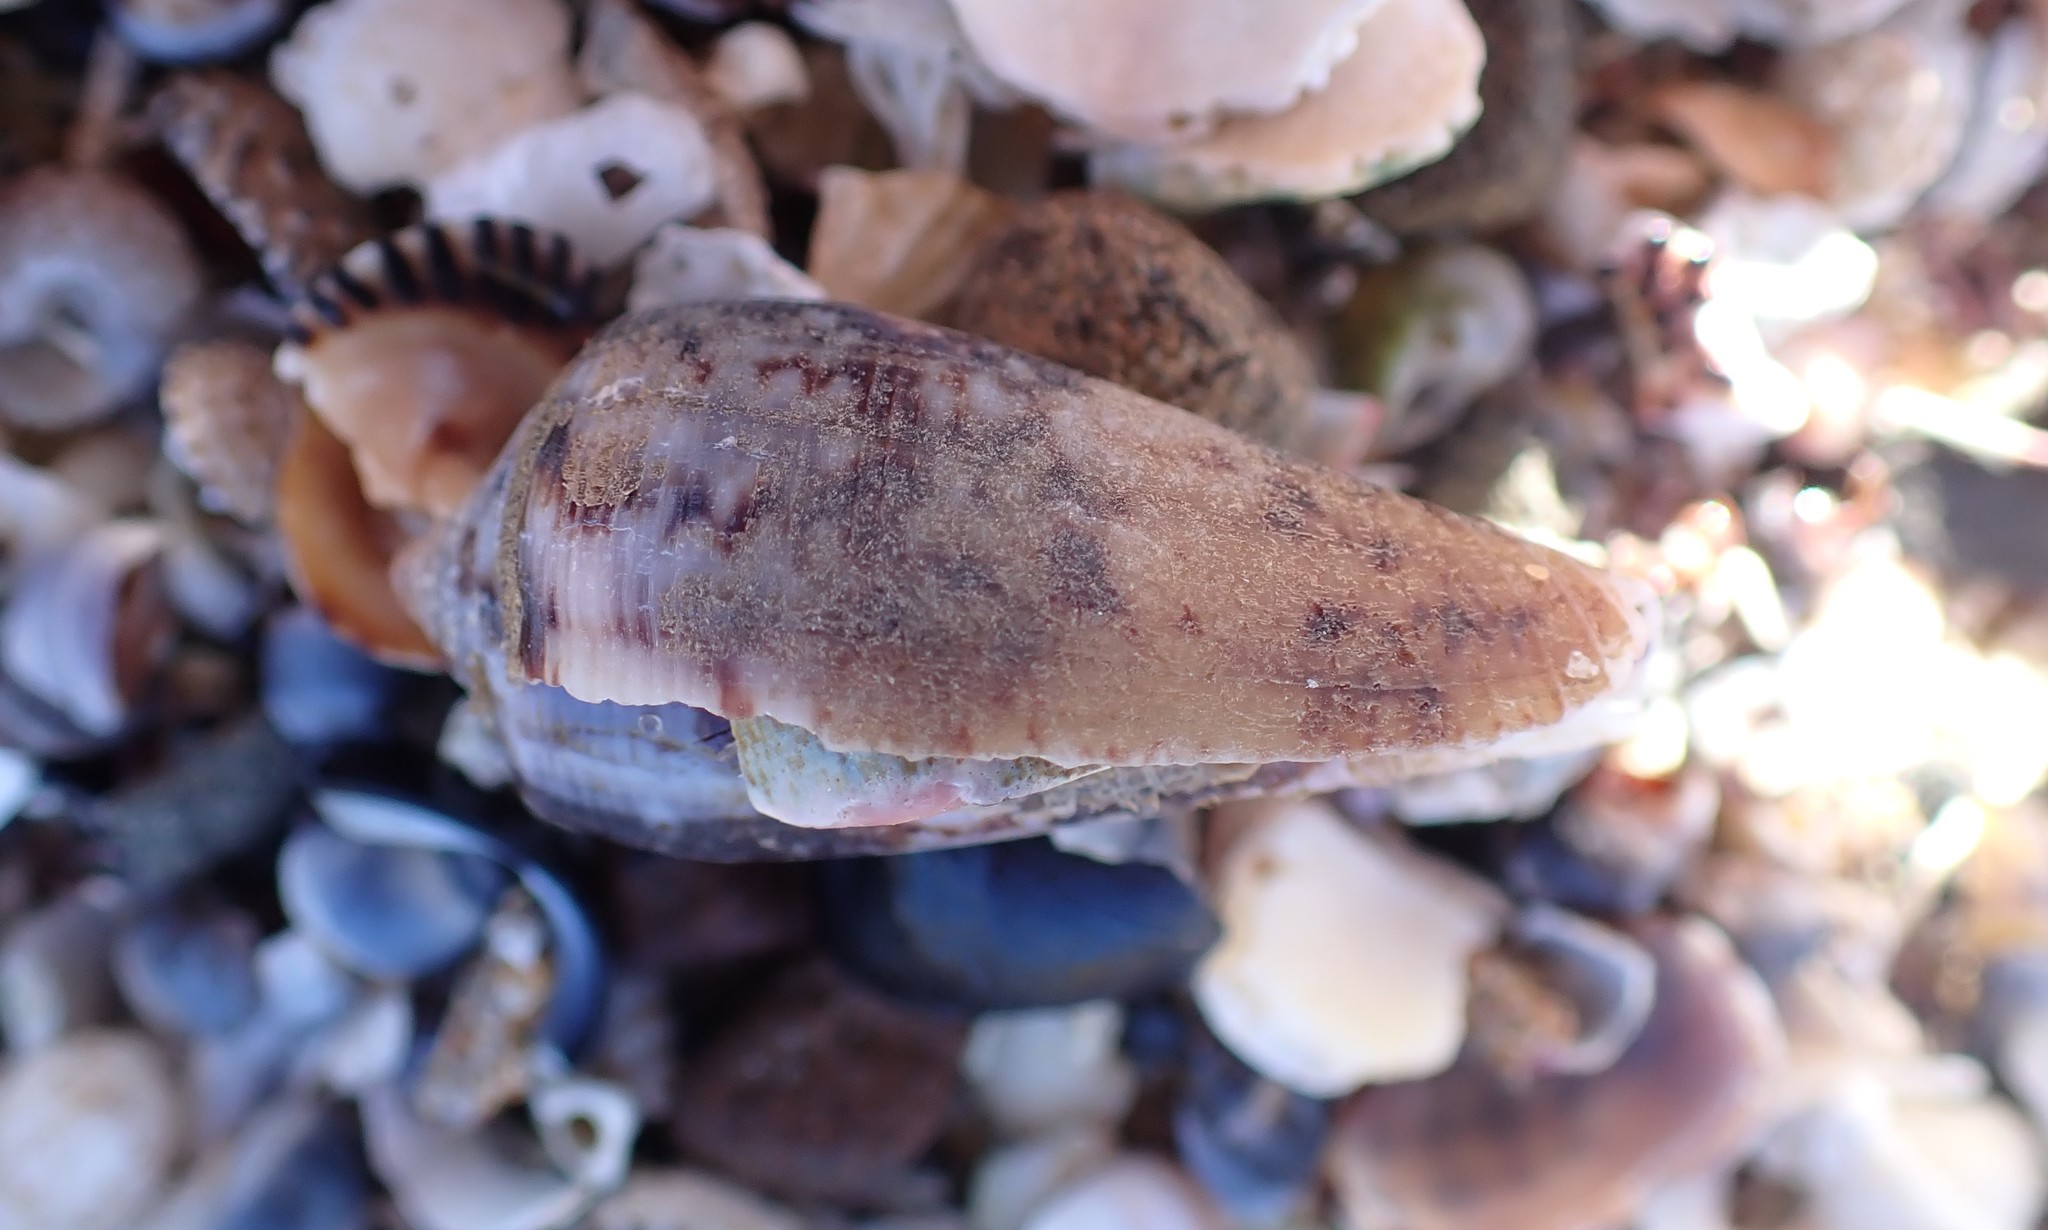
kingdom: Animalia
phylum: Mollusca
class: Gastropoda
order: Neogastropoda
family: Conidae
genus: Conus
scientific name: Conus anemone
